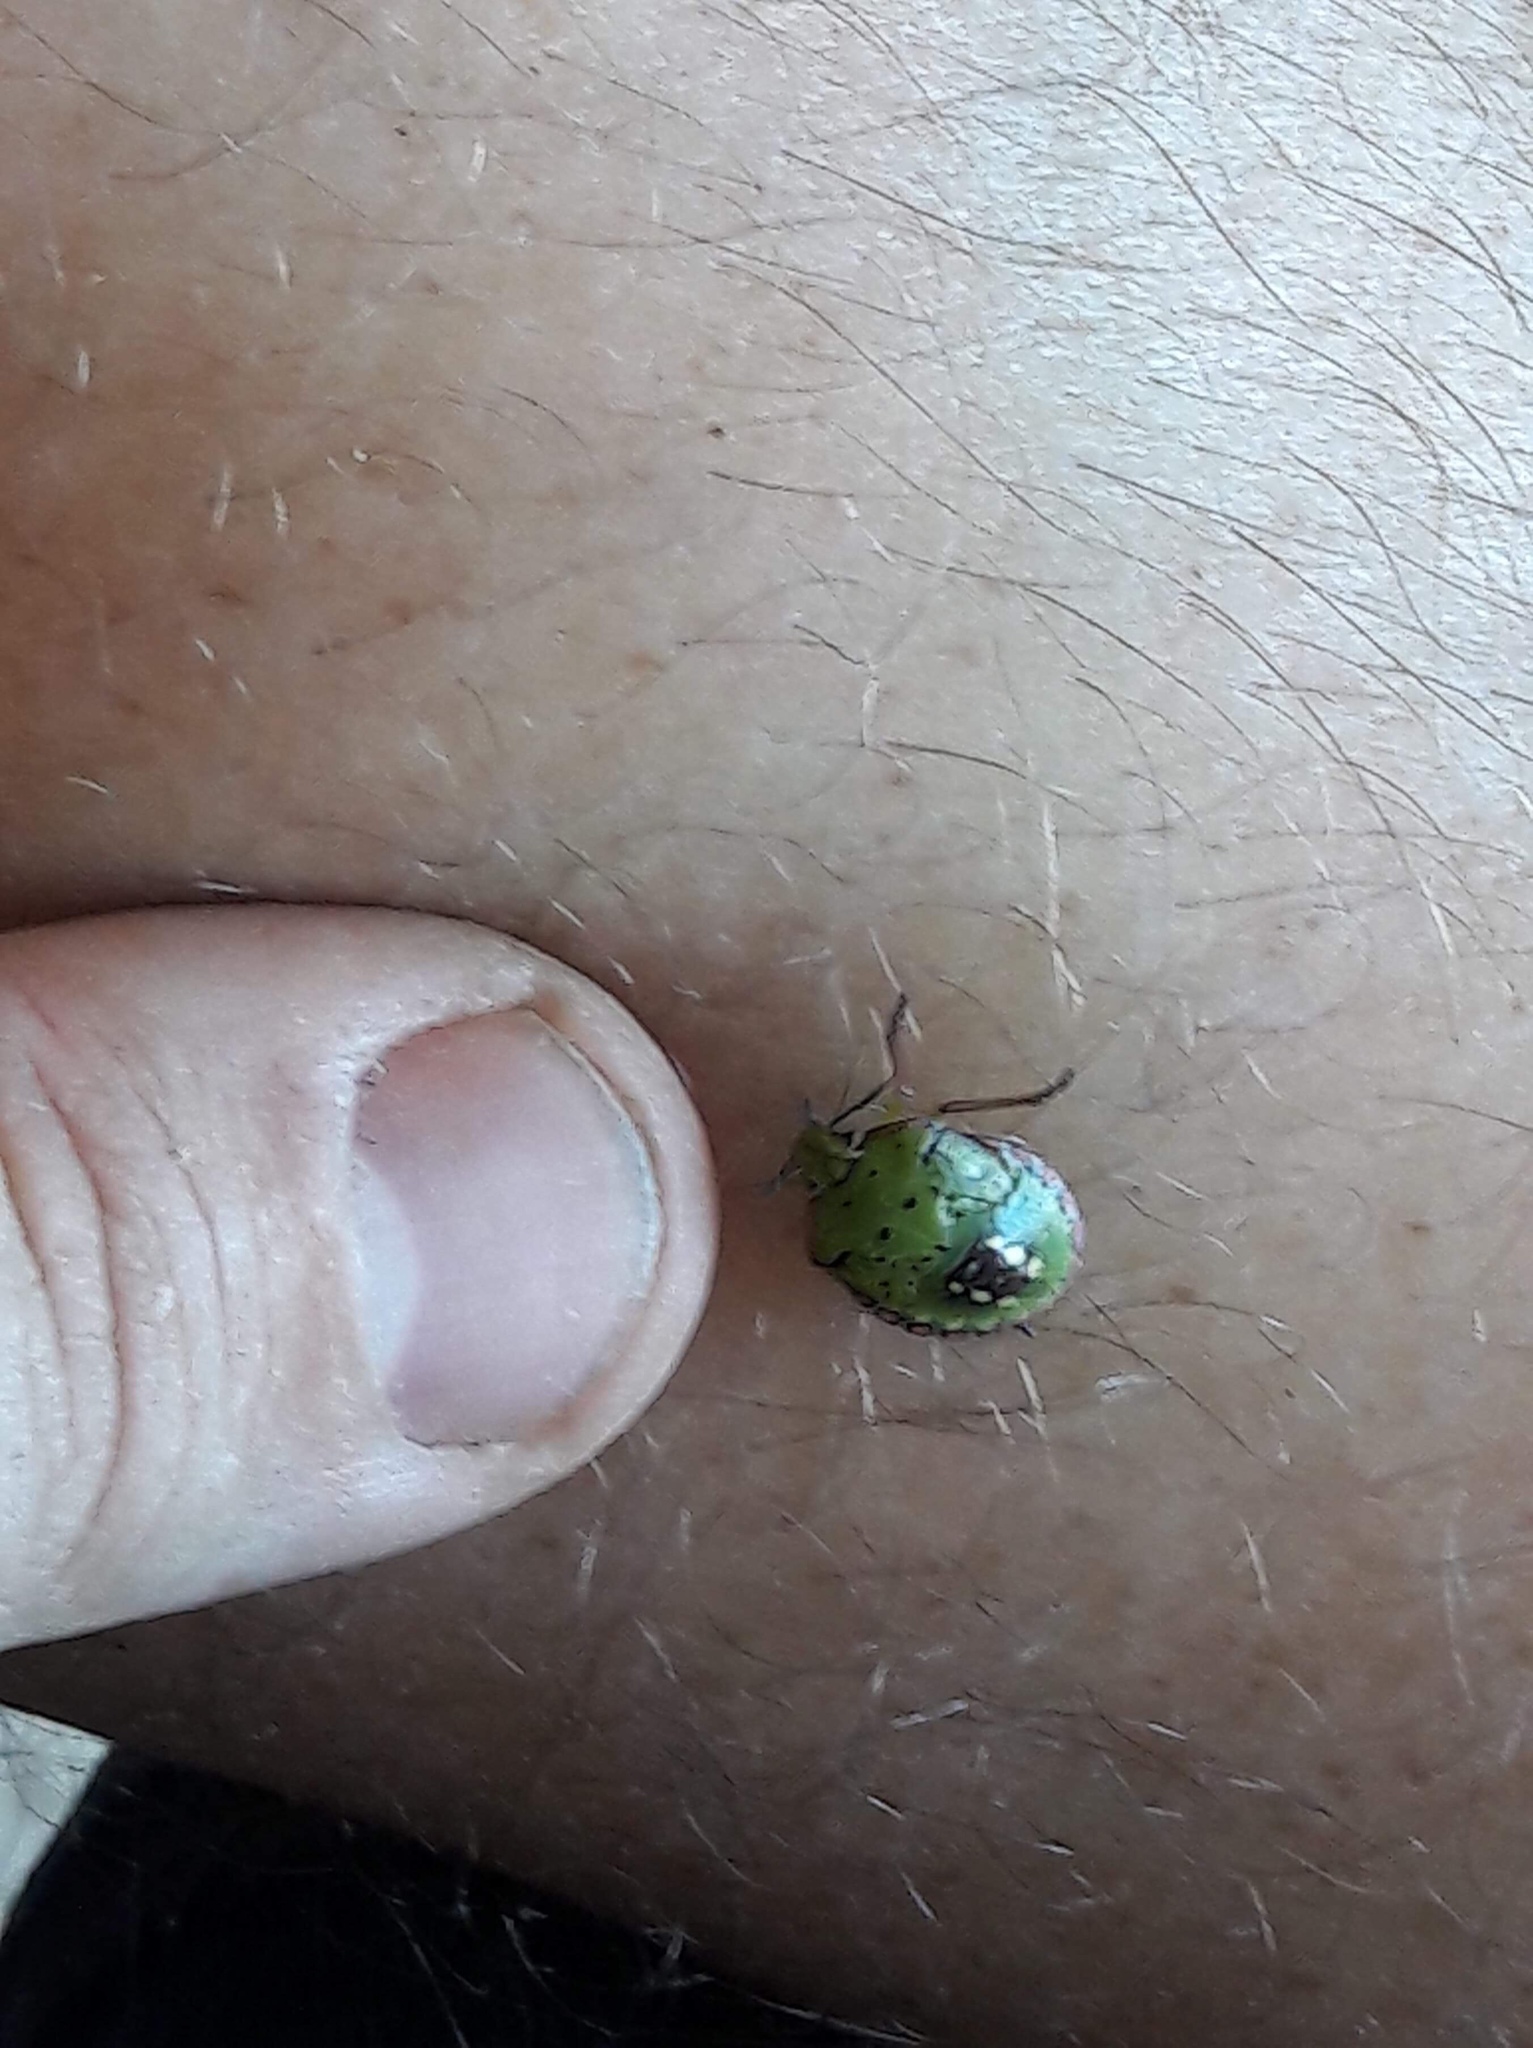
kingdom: Animalia
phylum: Arthropoda
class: Insecta
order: Hemiptera
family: Pentatomidae
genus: Nezara
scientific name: Nezara viridula
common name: Southern green stink bug
